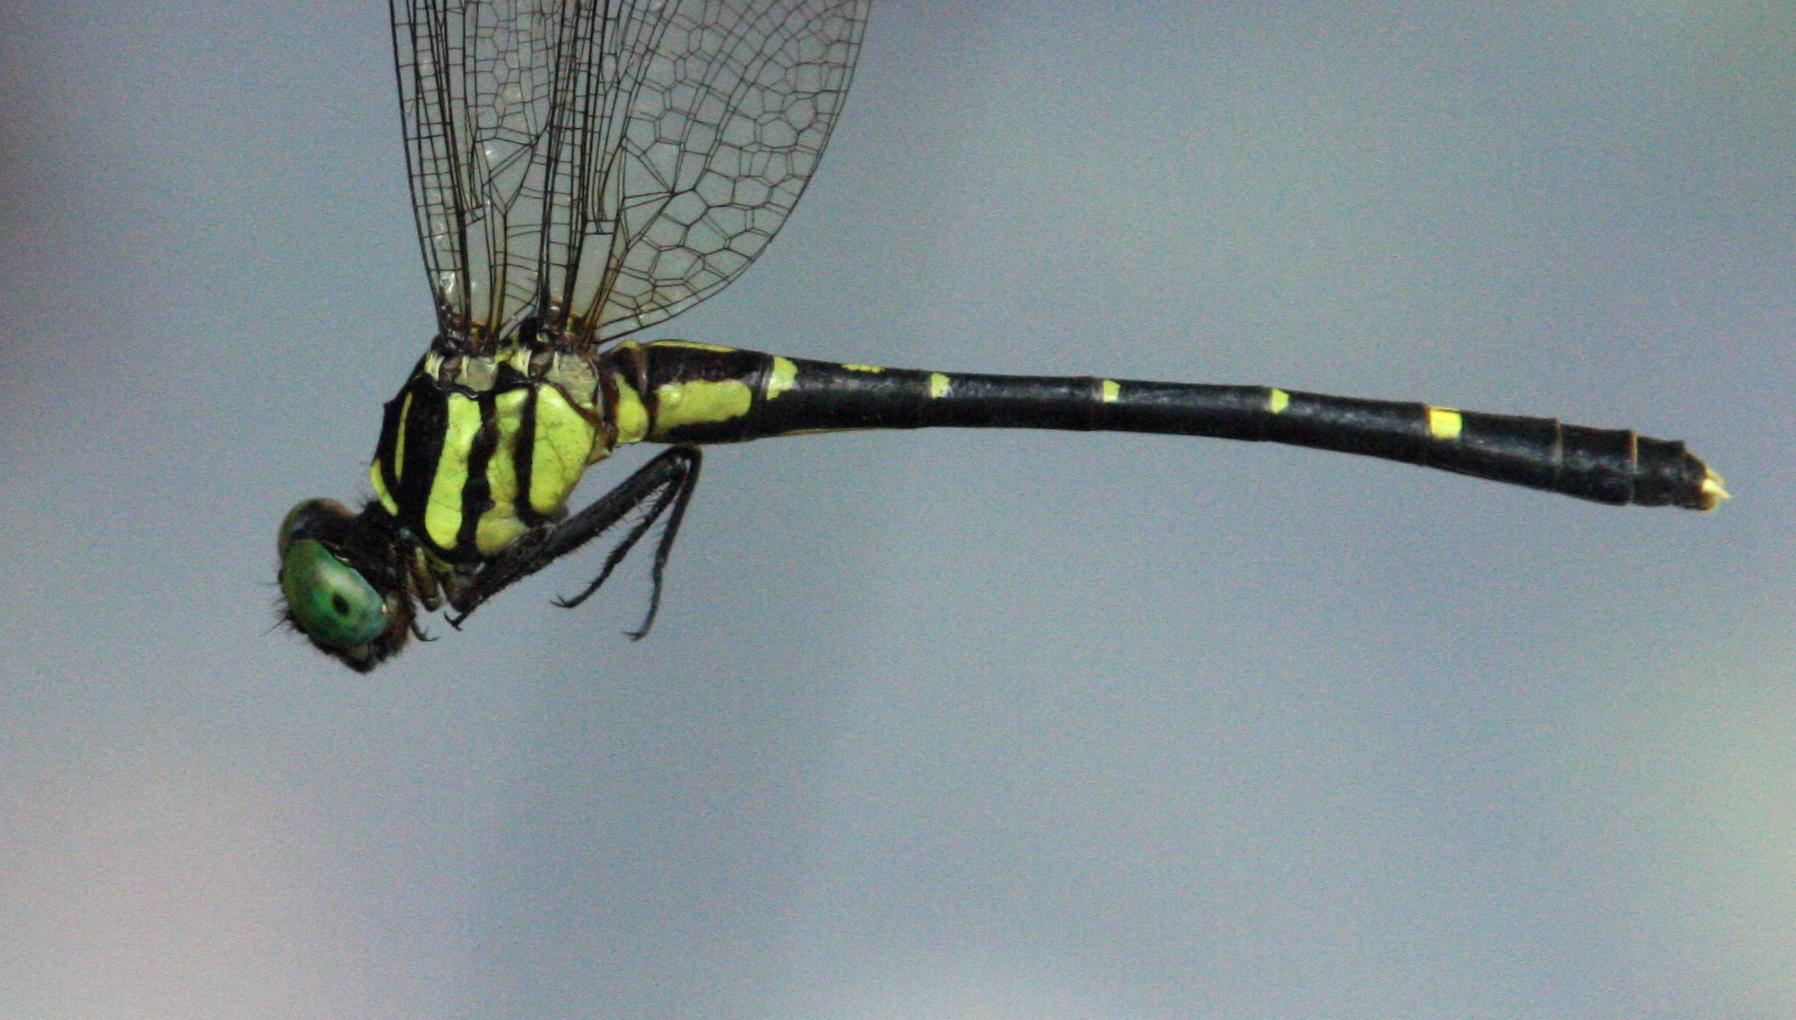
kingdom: Animalia
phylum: Arthropoda
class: Insecta
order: Odonata
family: Gomphidae
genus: Nepogomphus
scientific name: Nepogomphus walli
